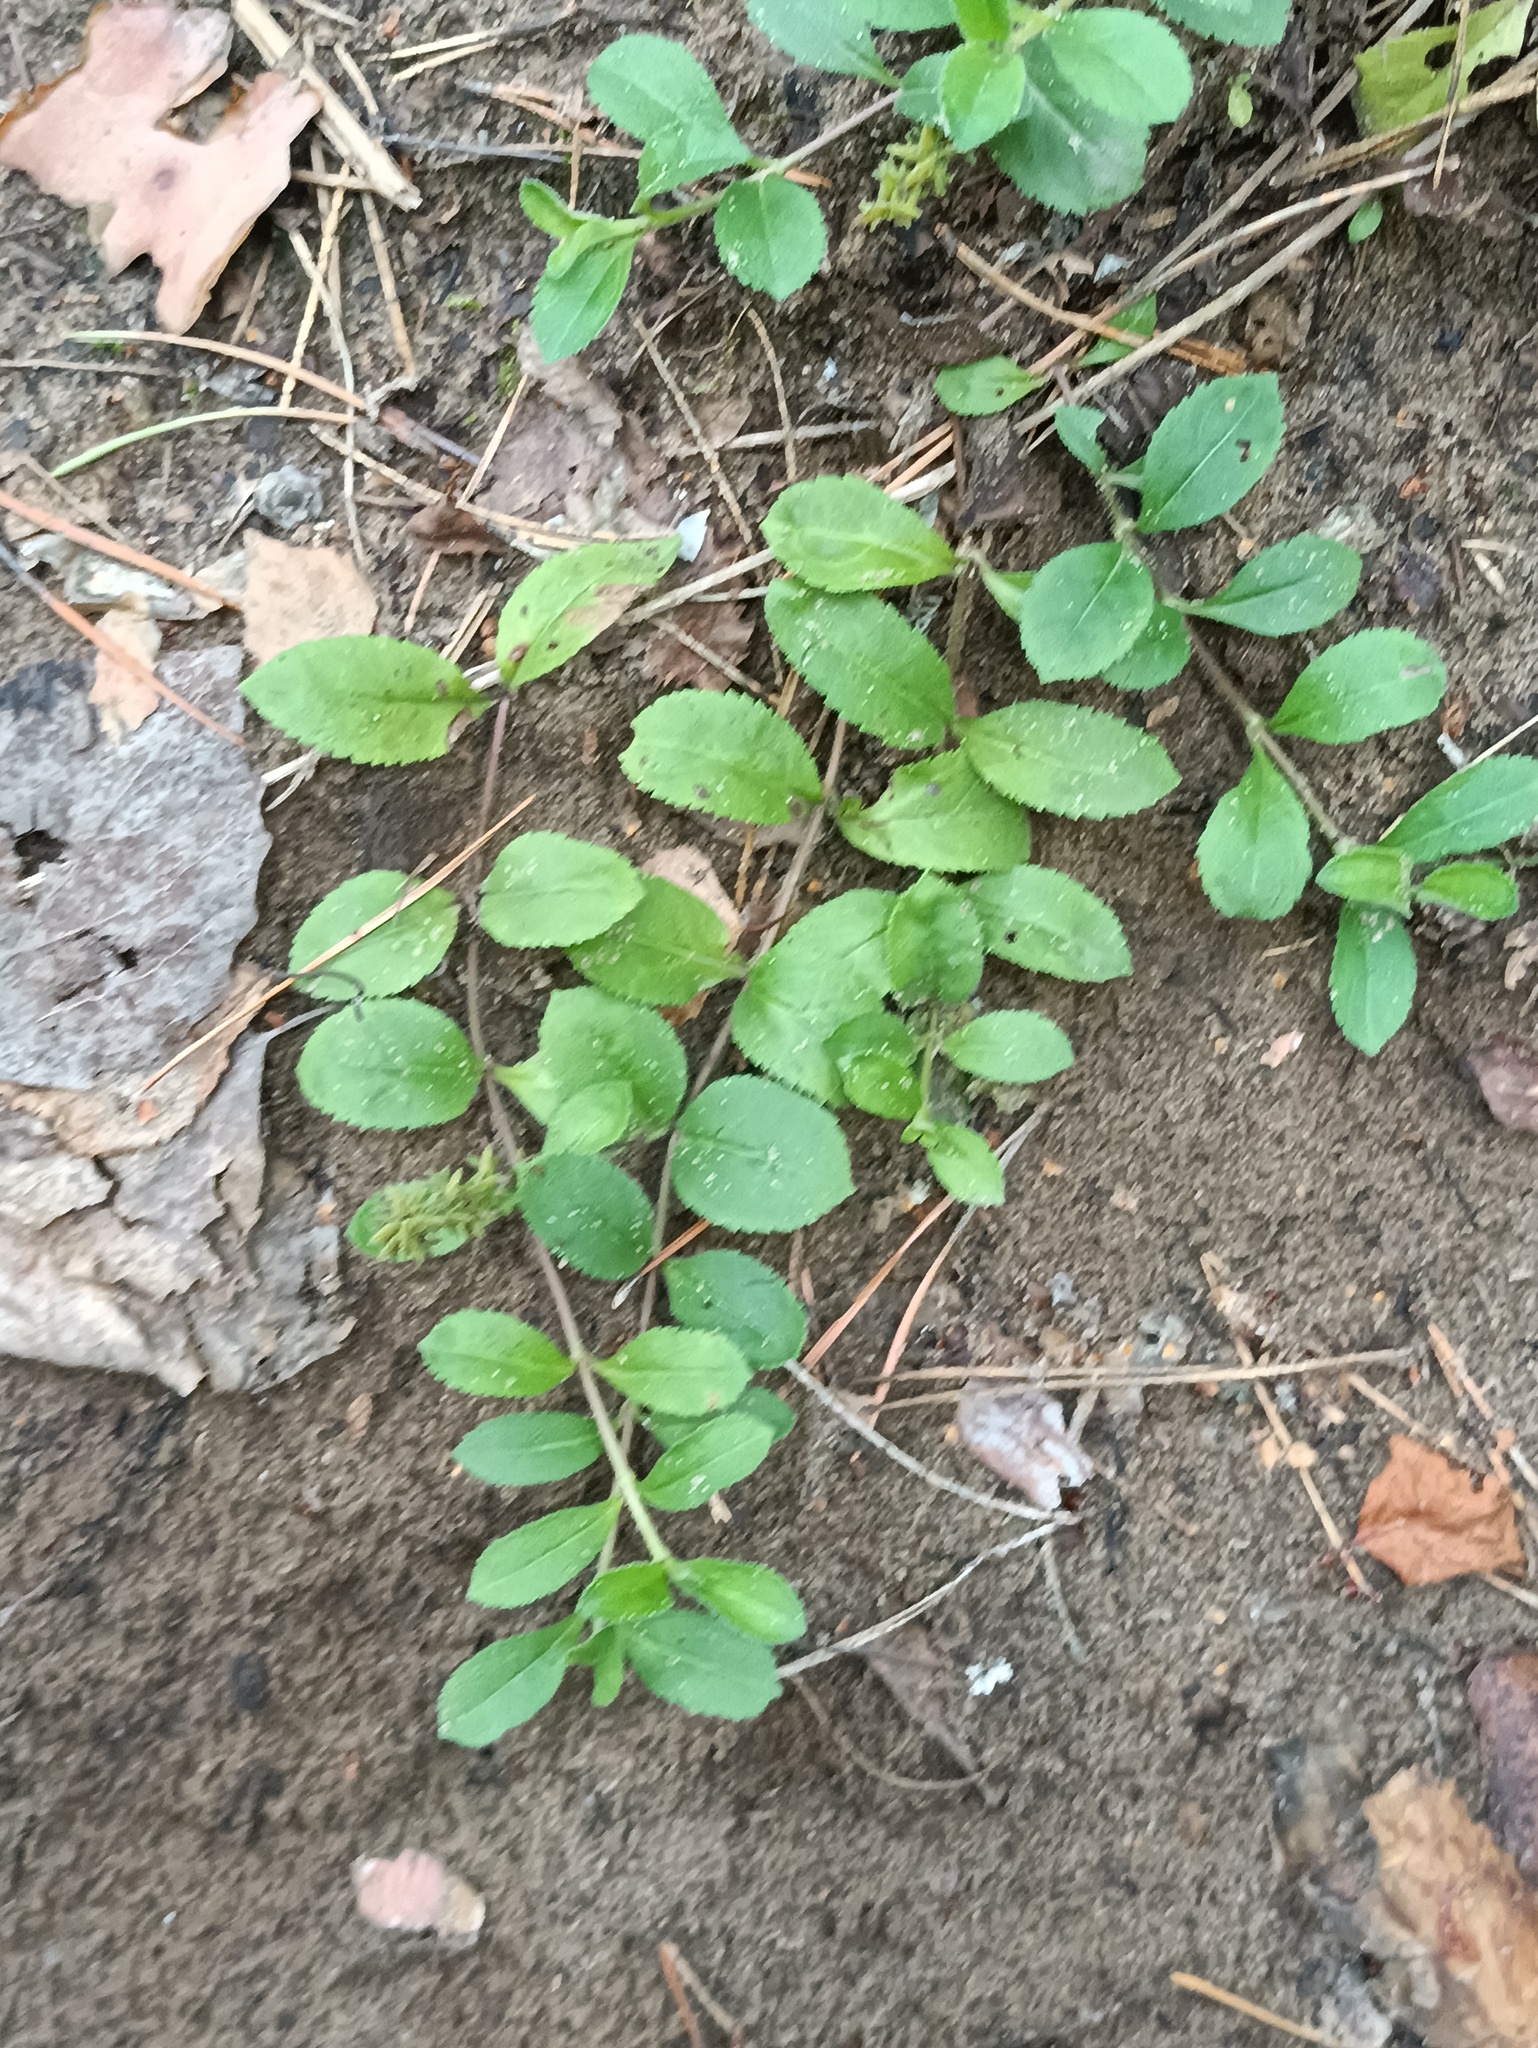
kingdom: Plantae
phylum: Tracheophyta
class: Magnoliopsida
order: Lamiales
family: Plantaginaceae
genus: Veronica
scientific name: Veronica officinalis
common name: Common speedwell
